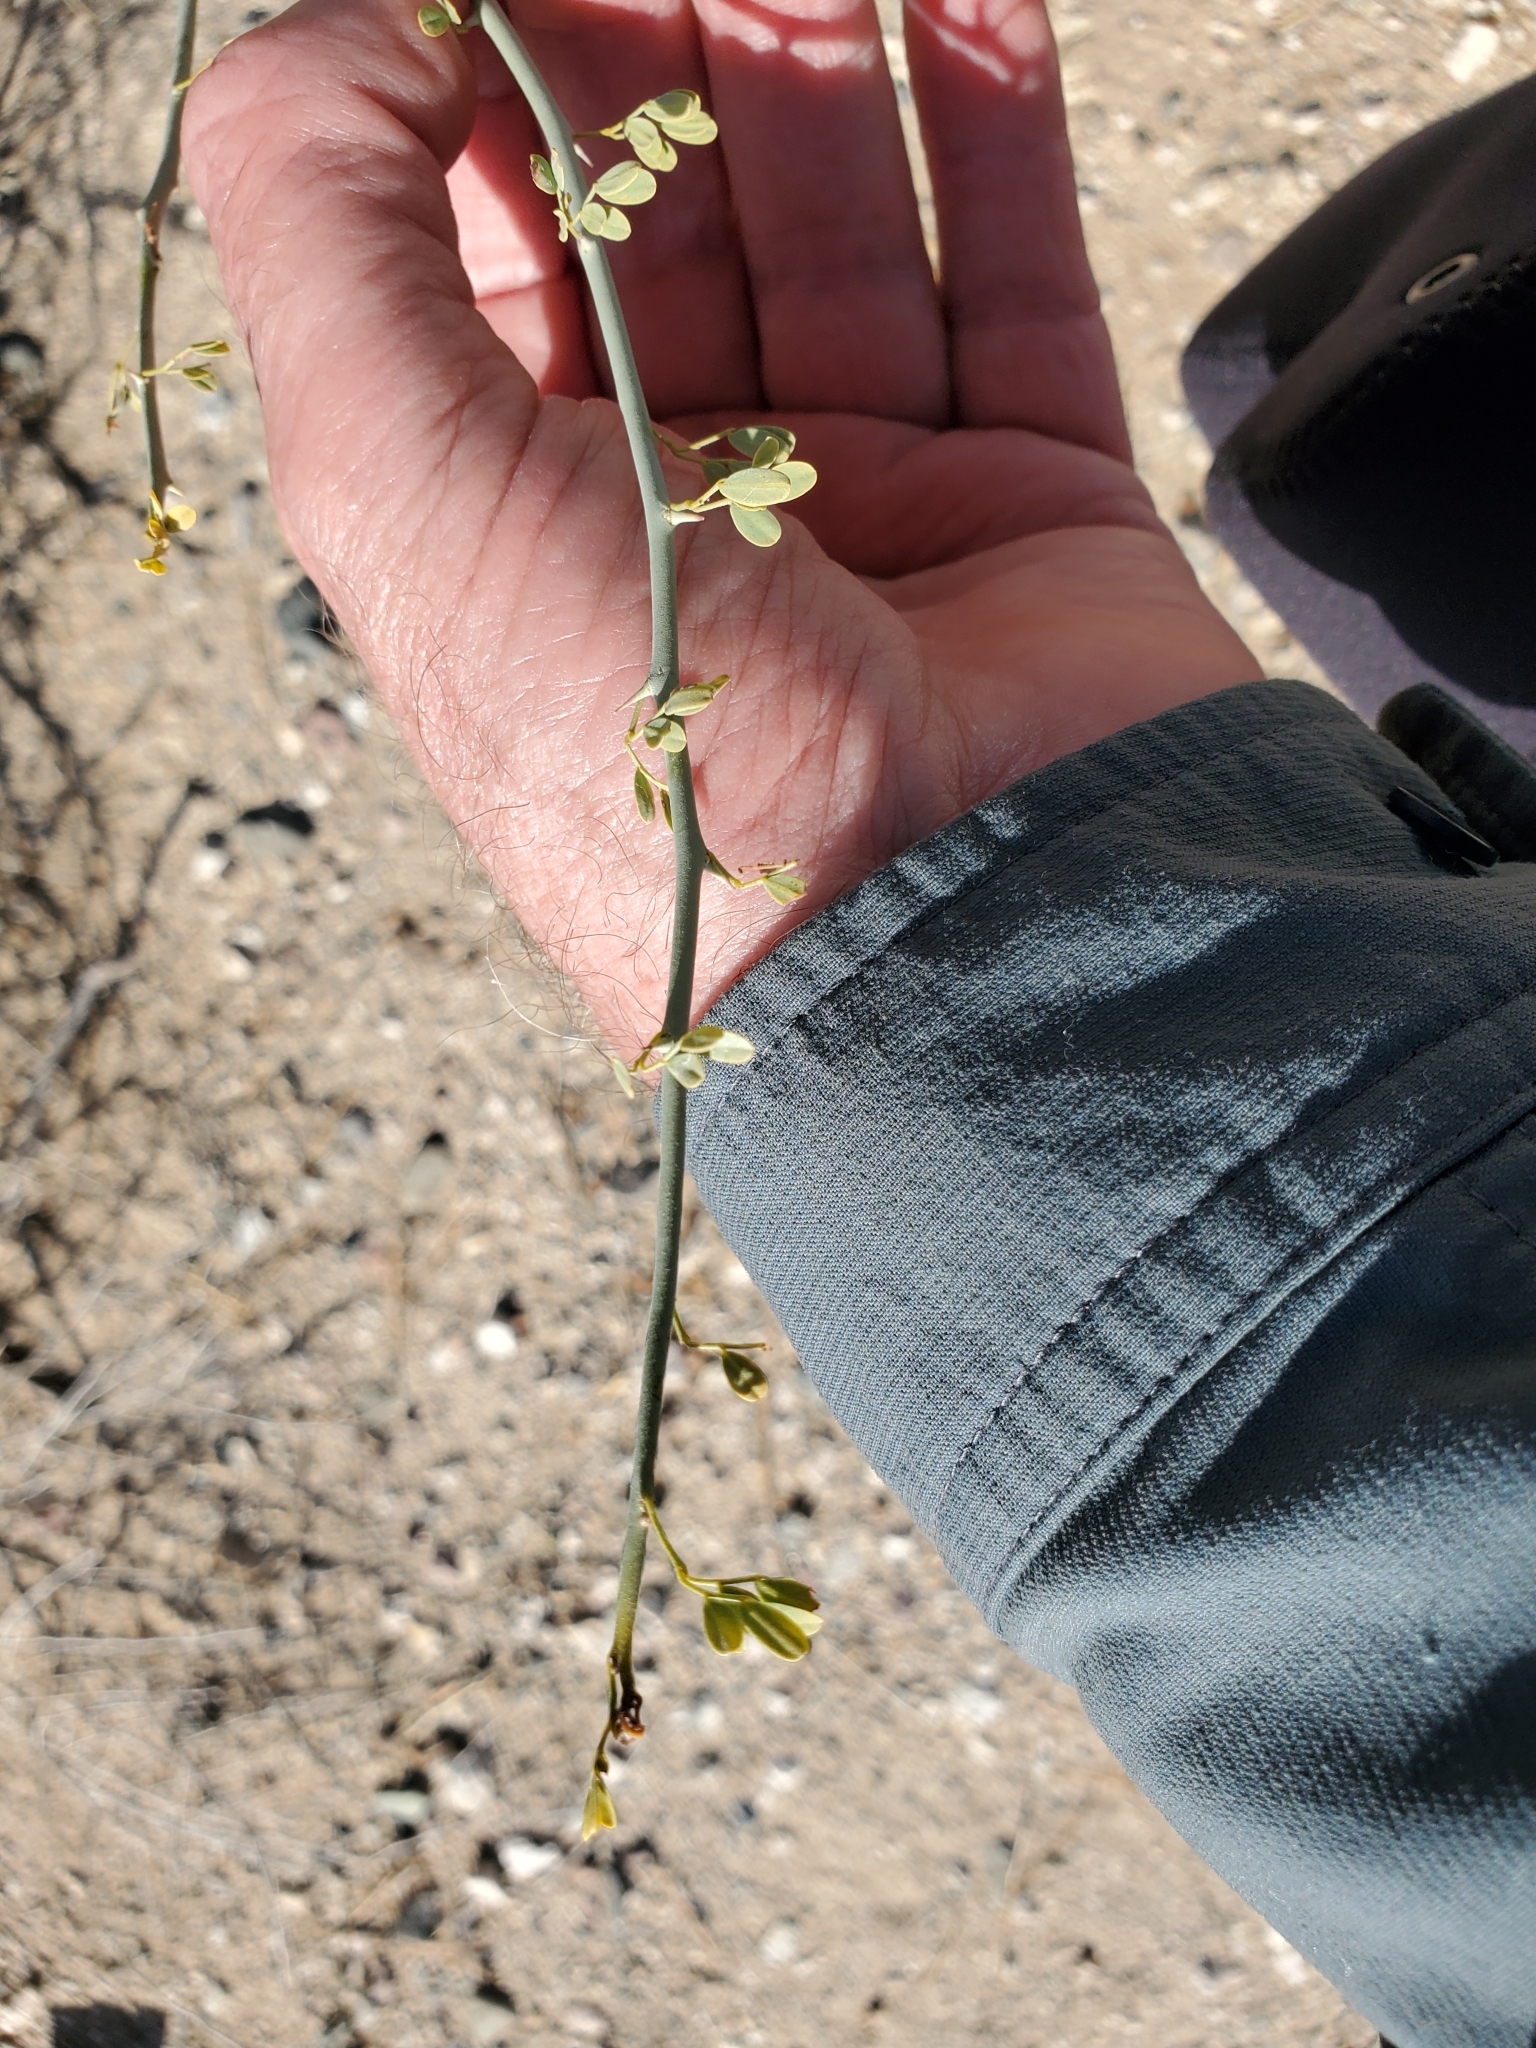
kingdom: Plantae
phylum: Tracheophyta
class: Magnoliopsida
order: Fabales
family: Fabaceae
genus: Parkinsonia
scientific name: Parkinsonia florida
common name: Blue paloverde
